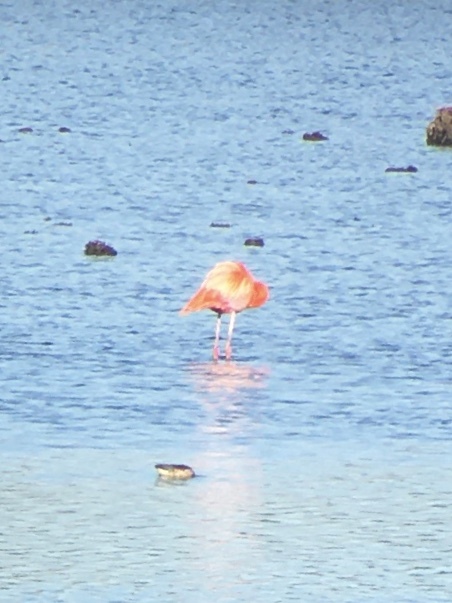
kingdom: Animalia
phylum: Chordata
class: Aves
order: Phoenicopteriformes
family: Phoenicopteridae
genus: Phoenicopterus
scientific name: Phoenicopterus ruber
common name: American flamingo
